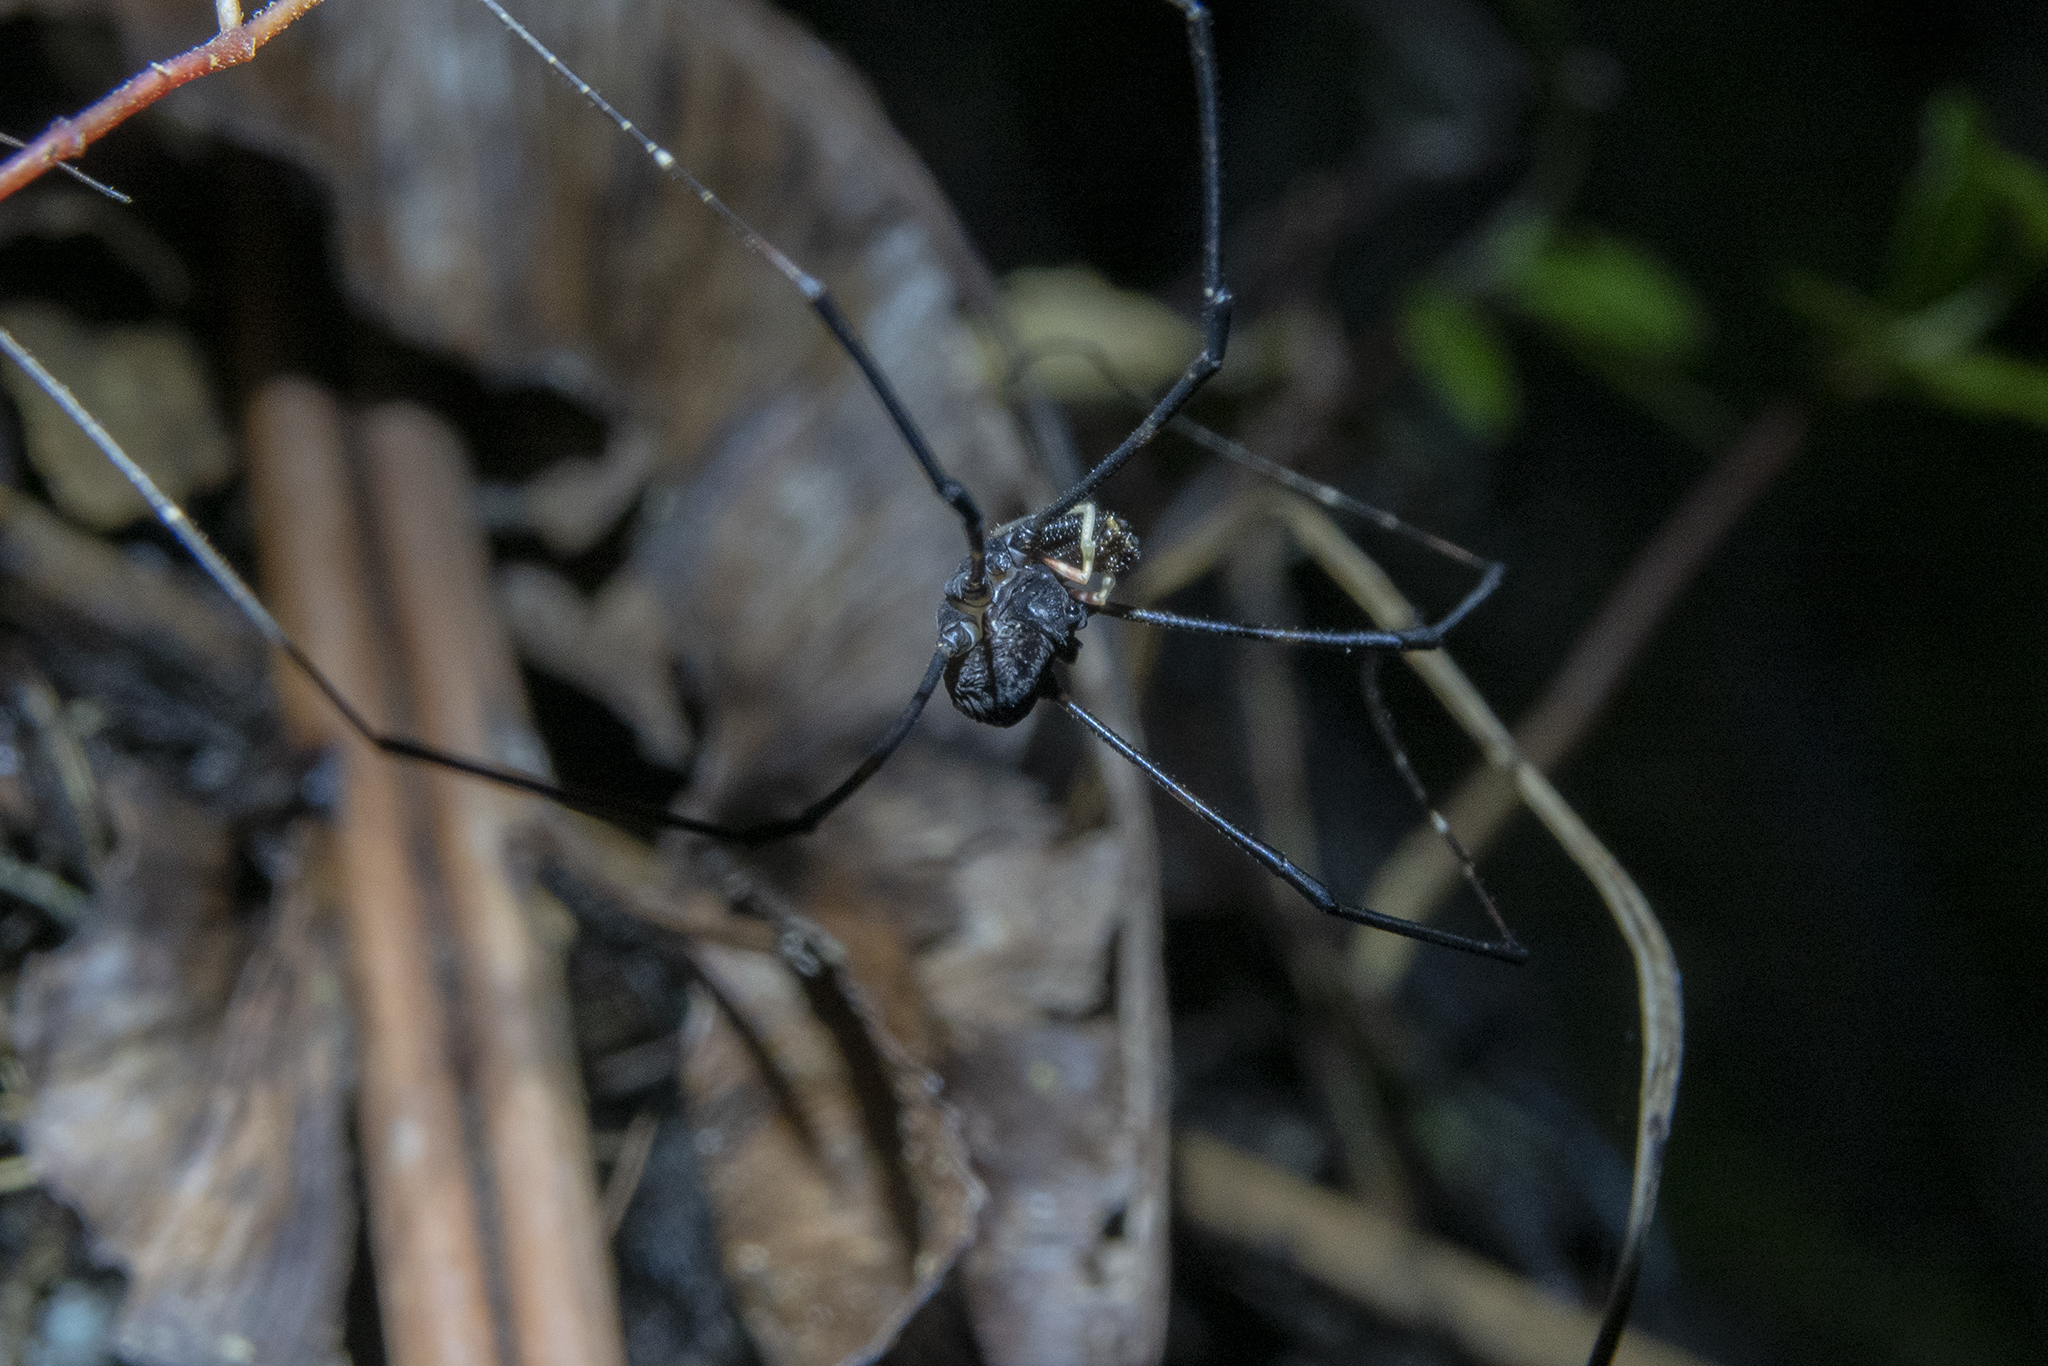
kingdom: Animalia
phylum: Arthropoda
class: Arachnida
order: Opiliones
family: Neopilionidae
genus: Forsteropsalis
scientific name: Forsteropsalis inconstans
